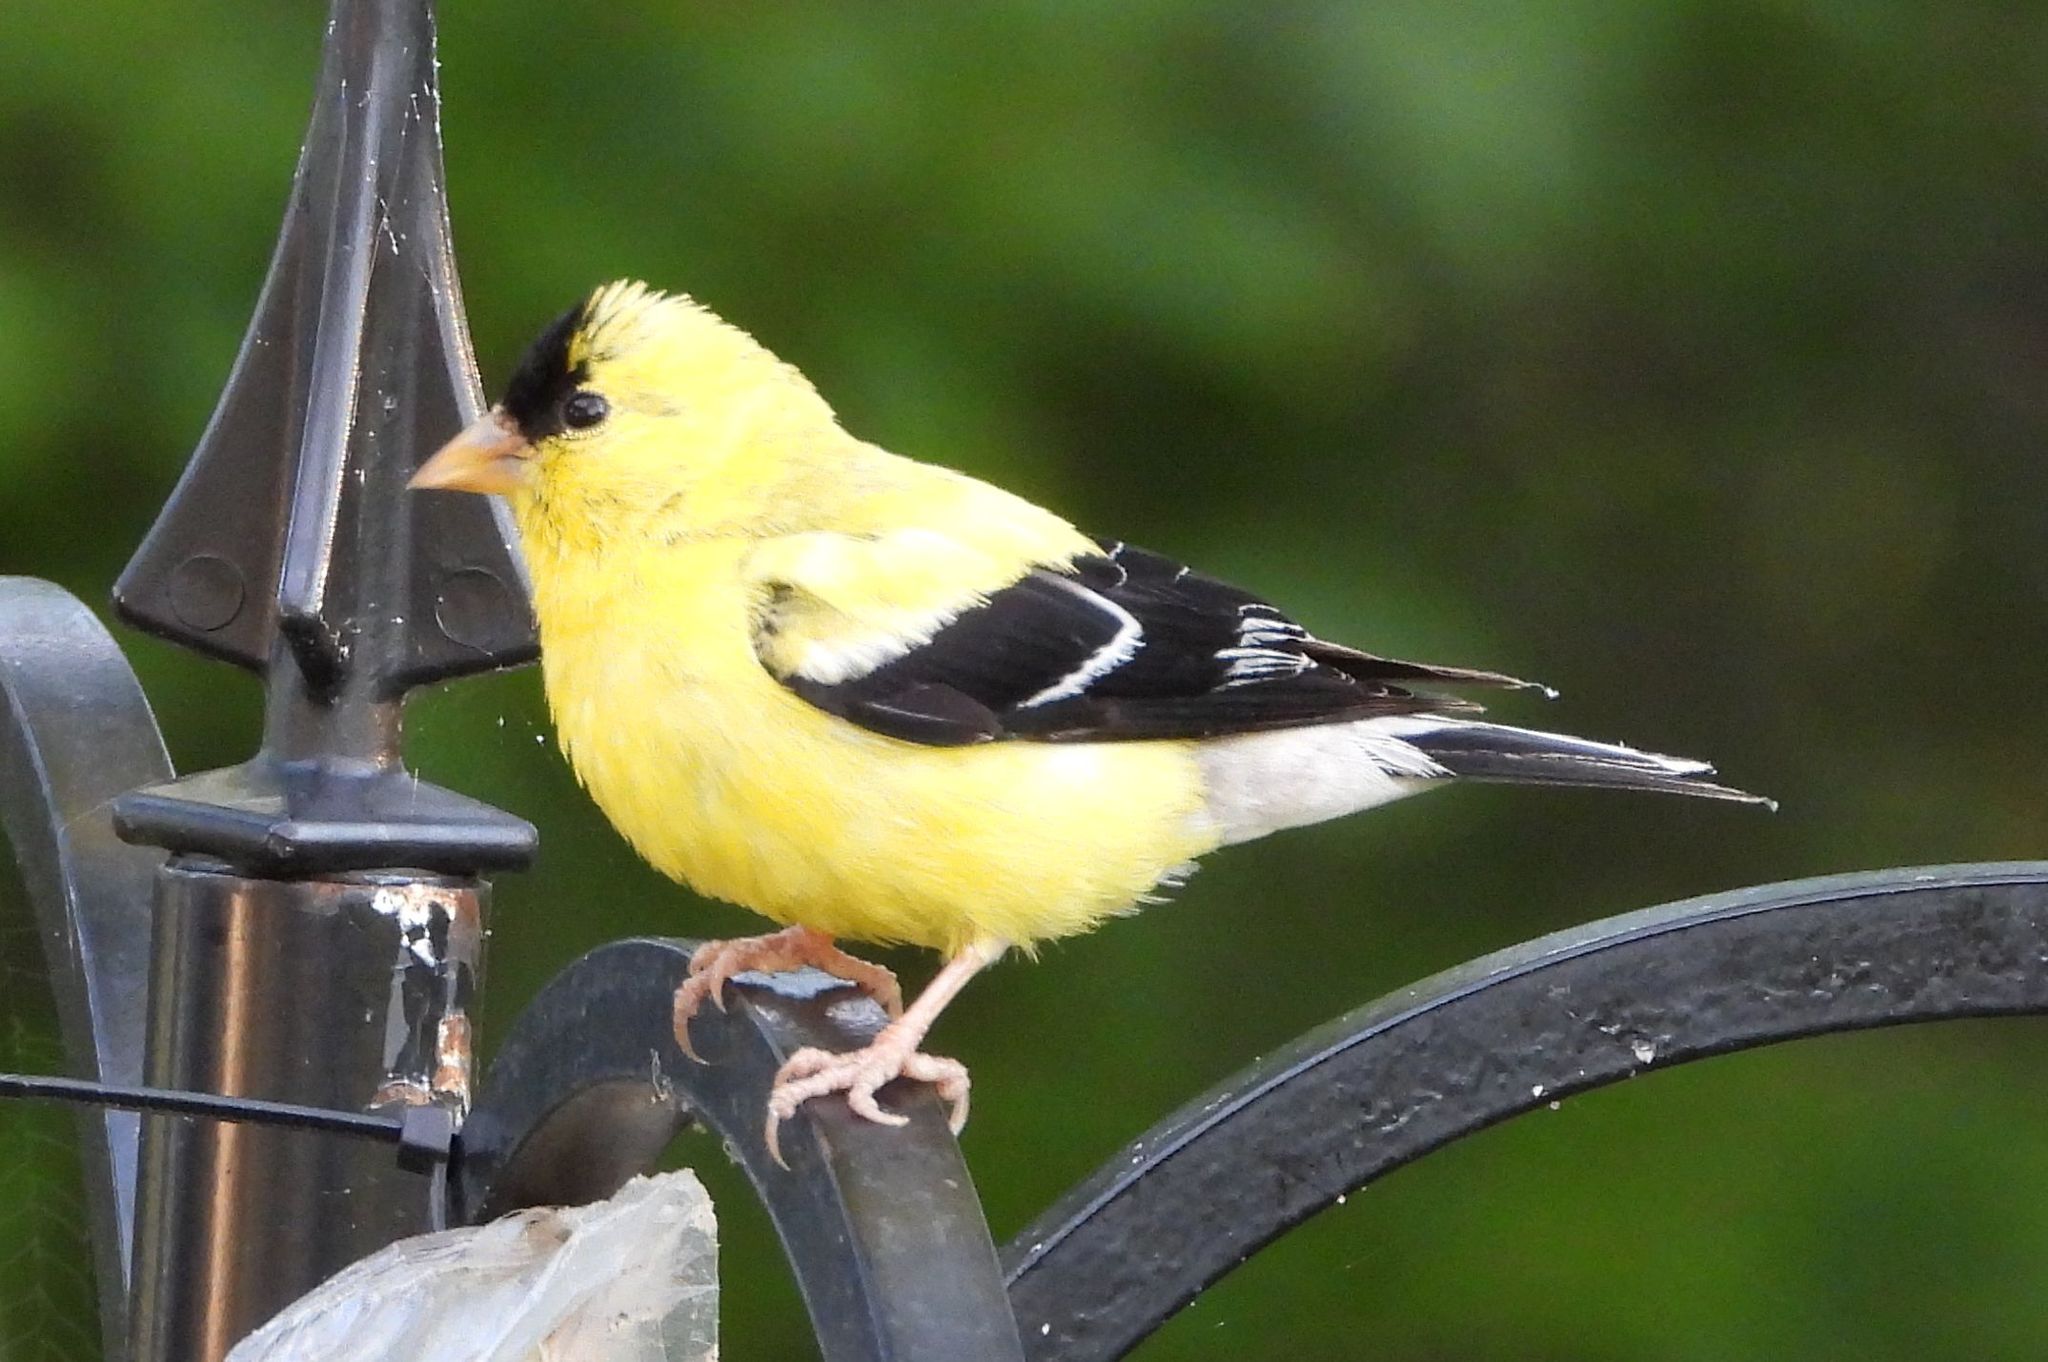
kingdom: Animalia
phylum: Chordata
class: Aves
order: Passeriformes
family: Fringillidae
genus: Spinus
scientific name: Spinus tristis
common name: American goldfinch
